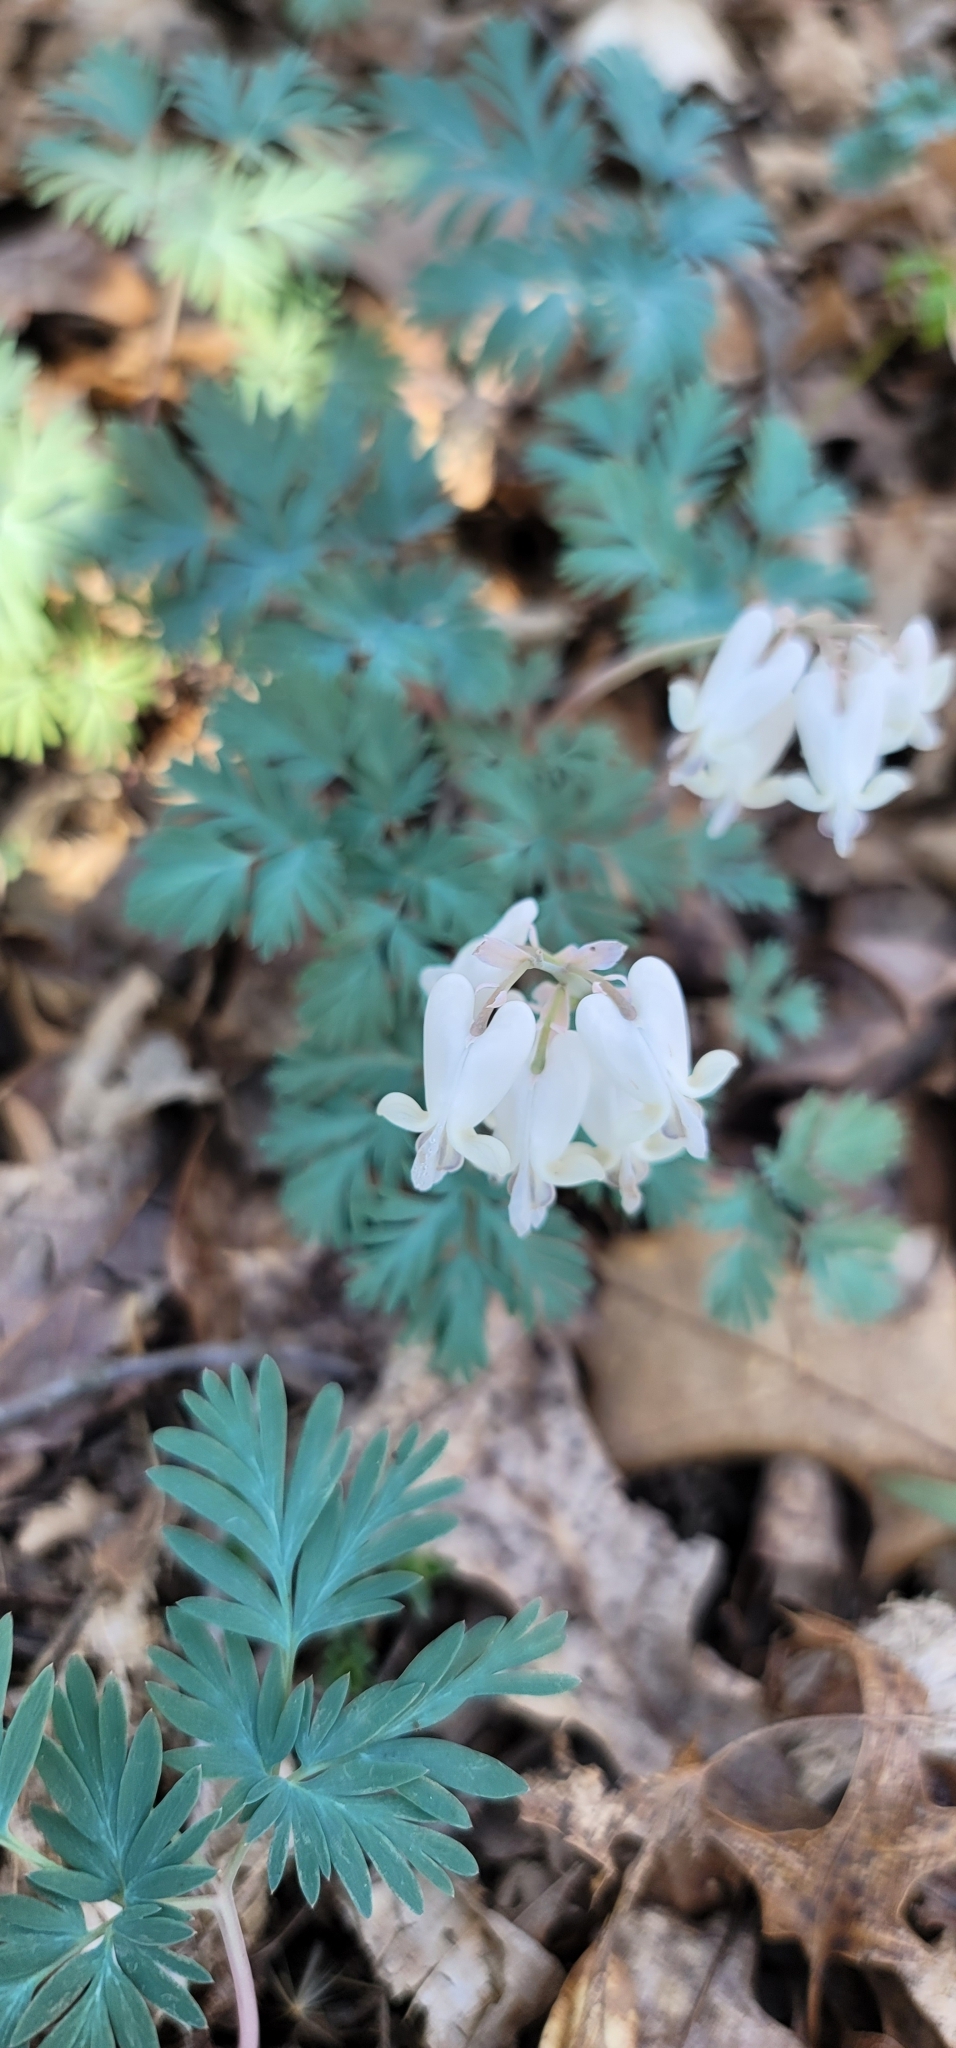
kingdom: Plantae
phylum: Tracheophyta
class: Magnoliopsida
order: Ranunculales
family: Papaveraceae
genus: Dicentra
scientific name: Dicentra canadensis
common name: Squirrel-corn
